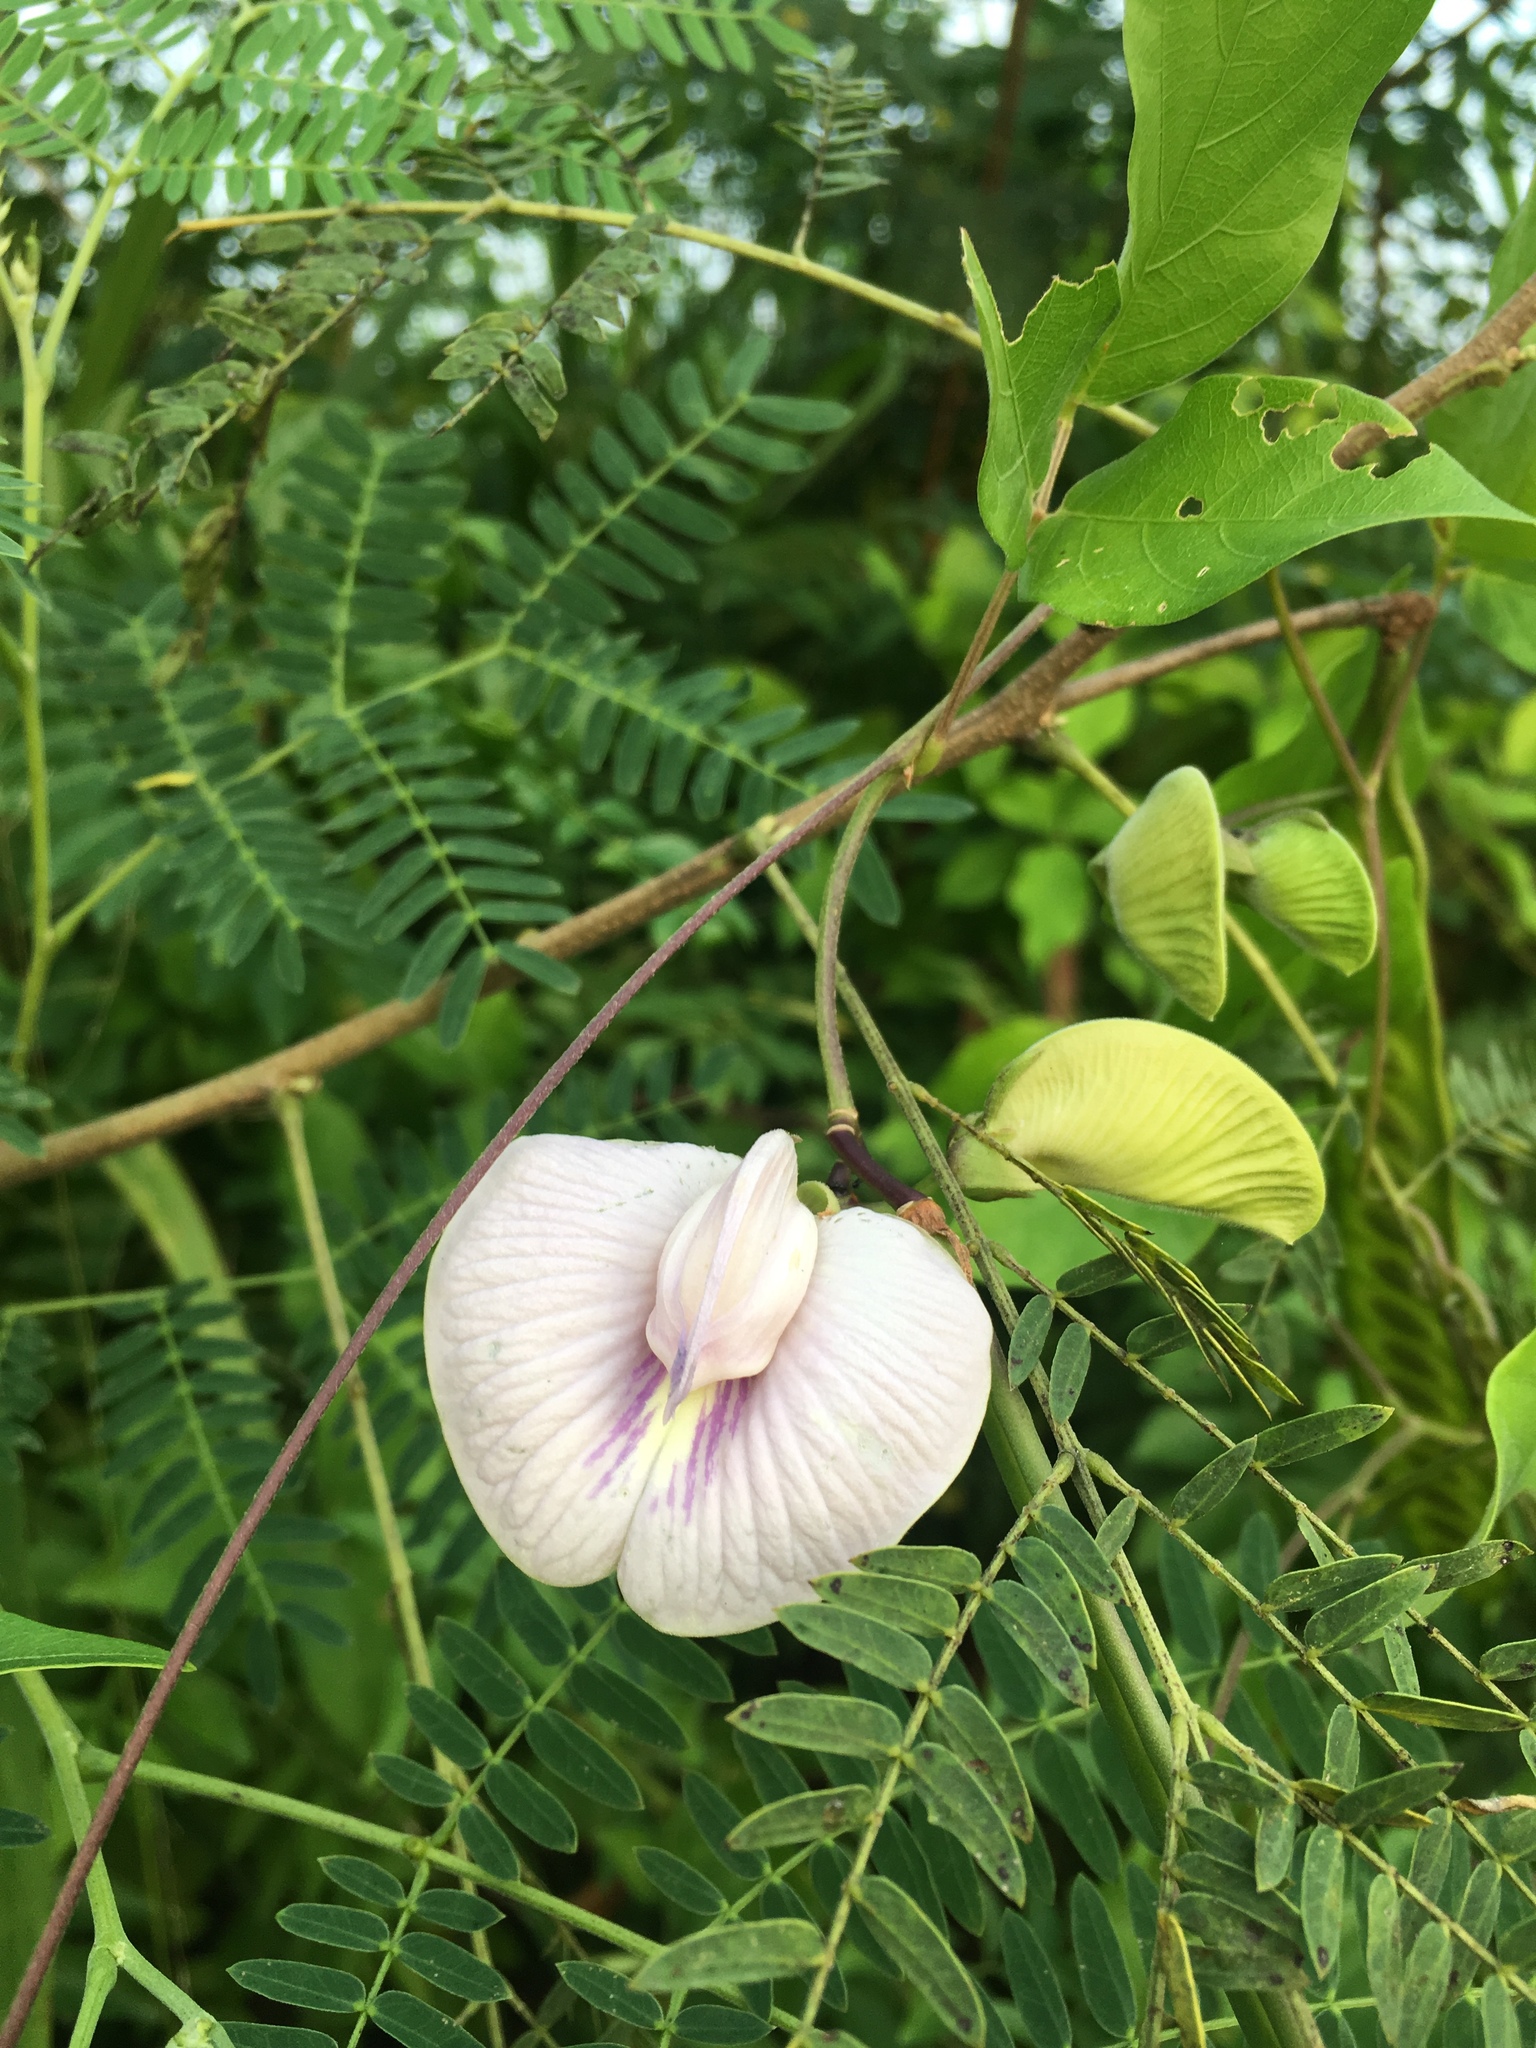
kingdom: Plantae
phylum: Tracheophyta
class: Magnoliopsida
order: Fabales
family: Fabaceae
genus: Centrosema
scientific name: Centrosema pubescens
